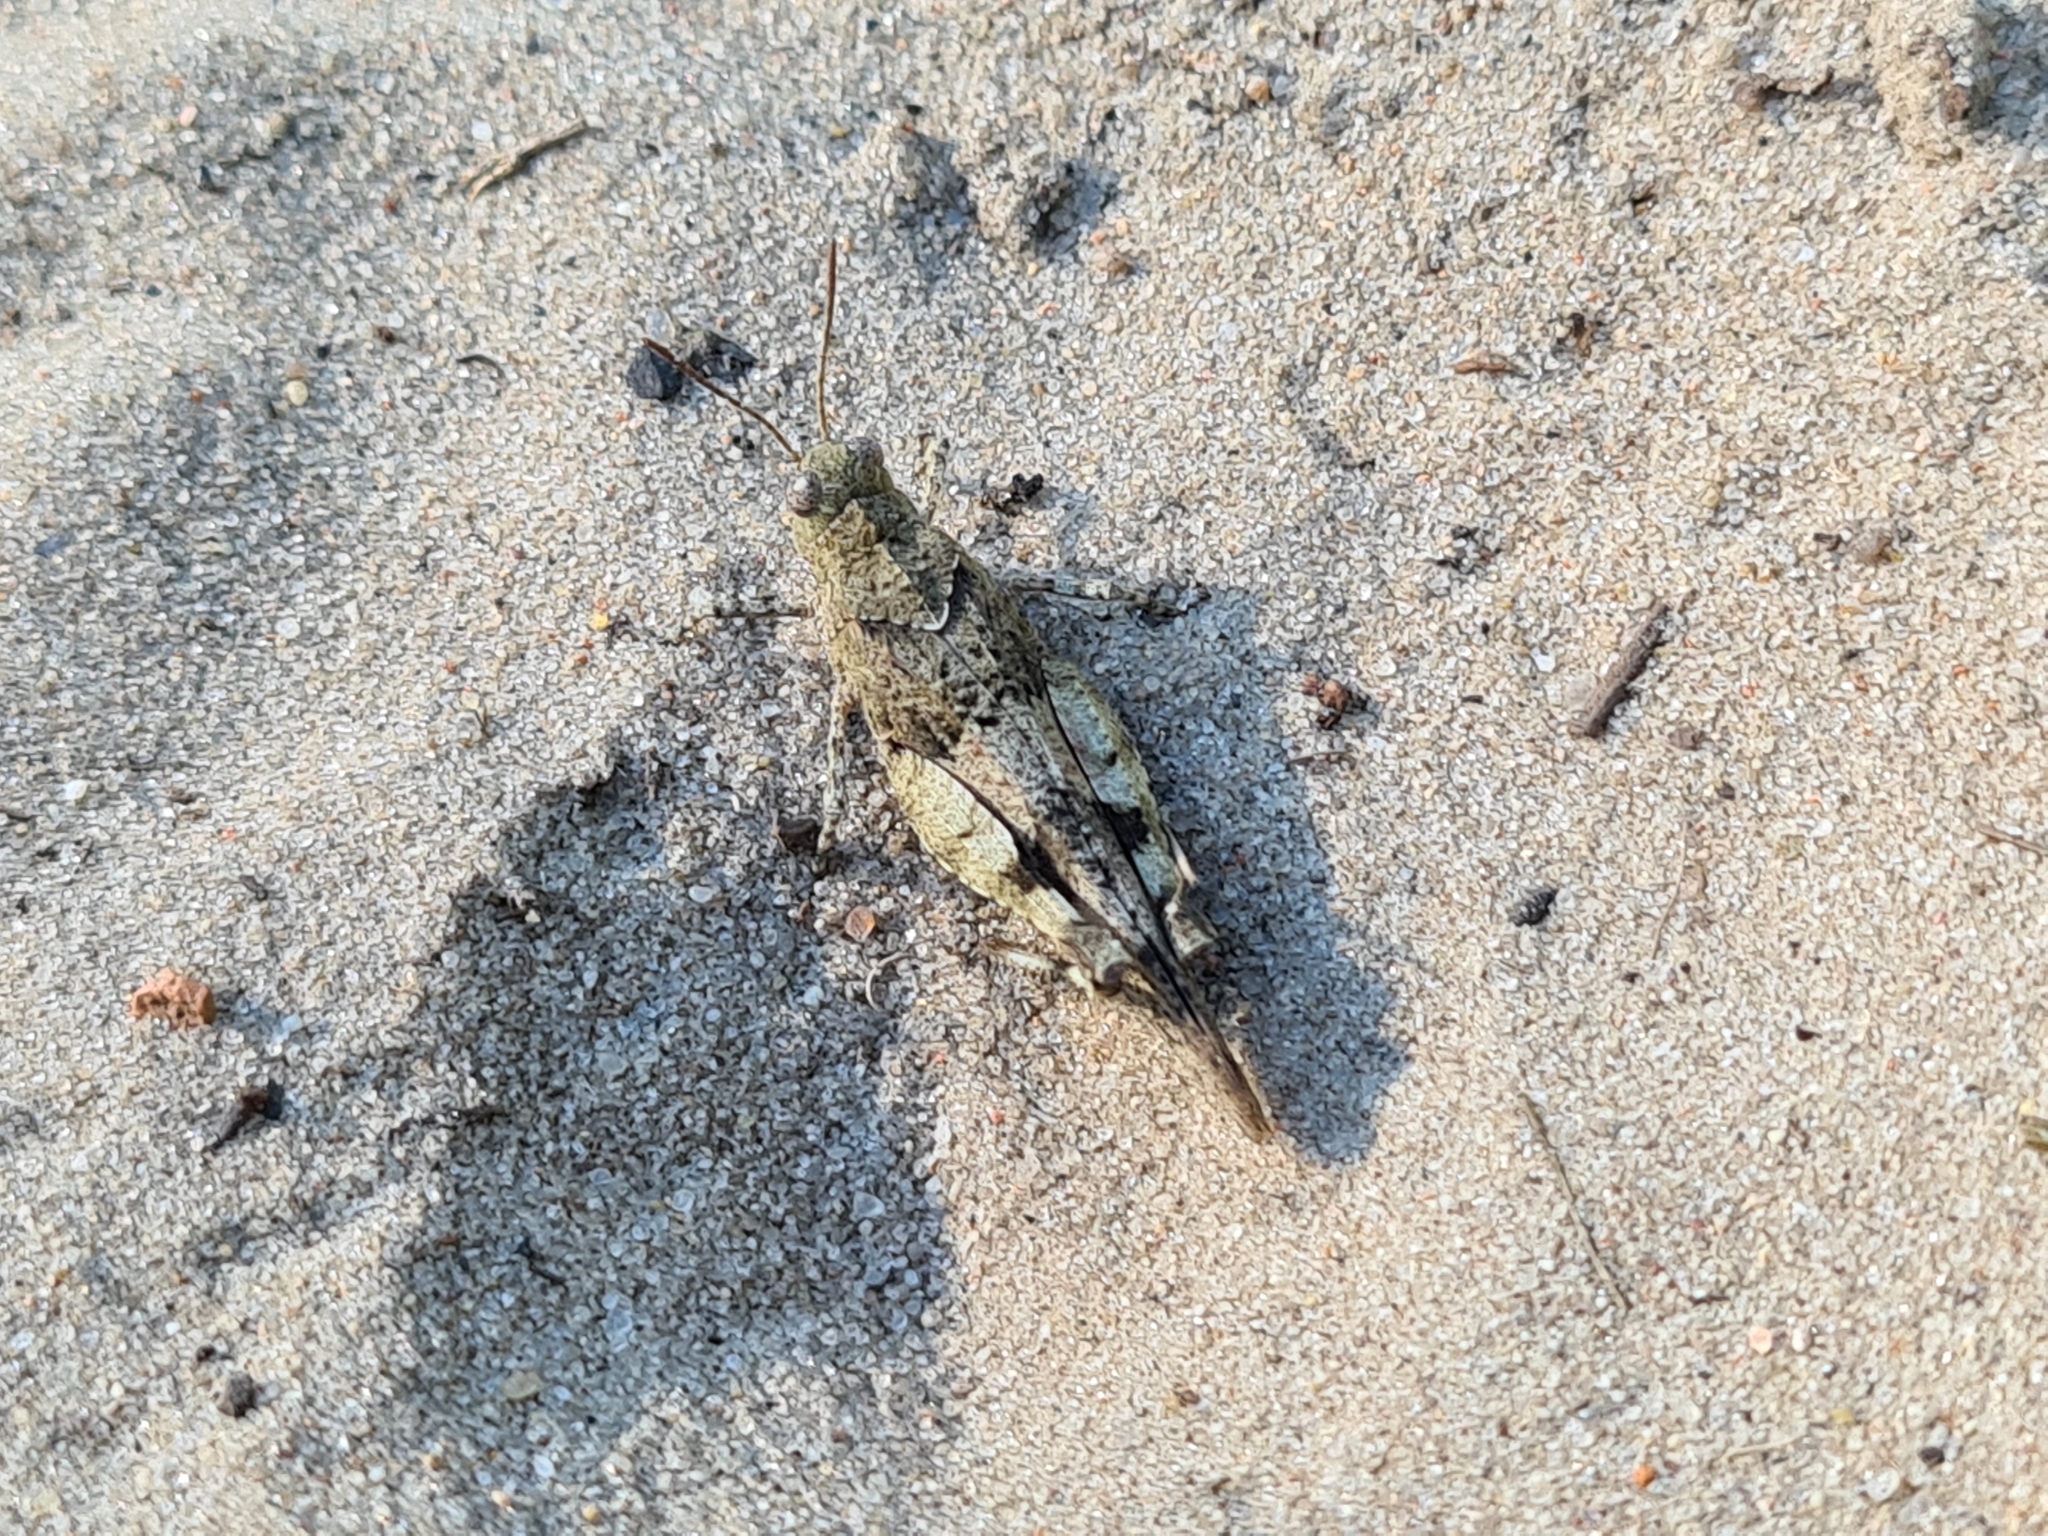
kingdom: Animalia
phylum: Arthropoda
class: Insecta
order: Orthoptera
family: Acrididae
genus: Oedipoda
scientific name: Oedipoda caerulescens
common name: Blue-winged grasshopper
